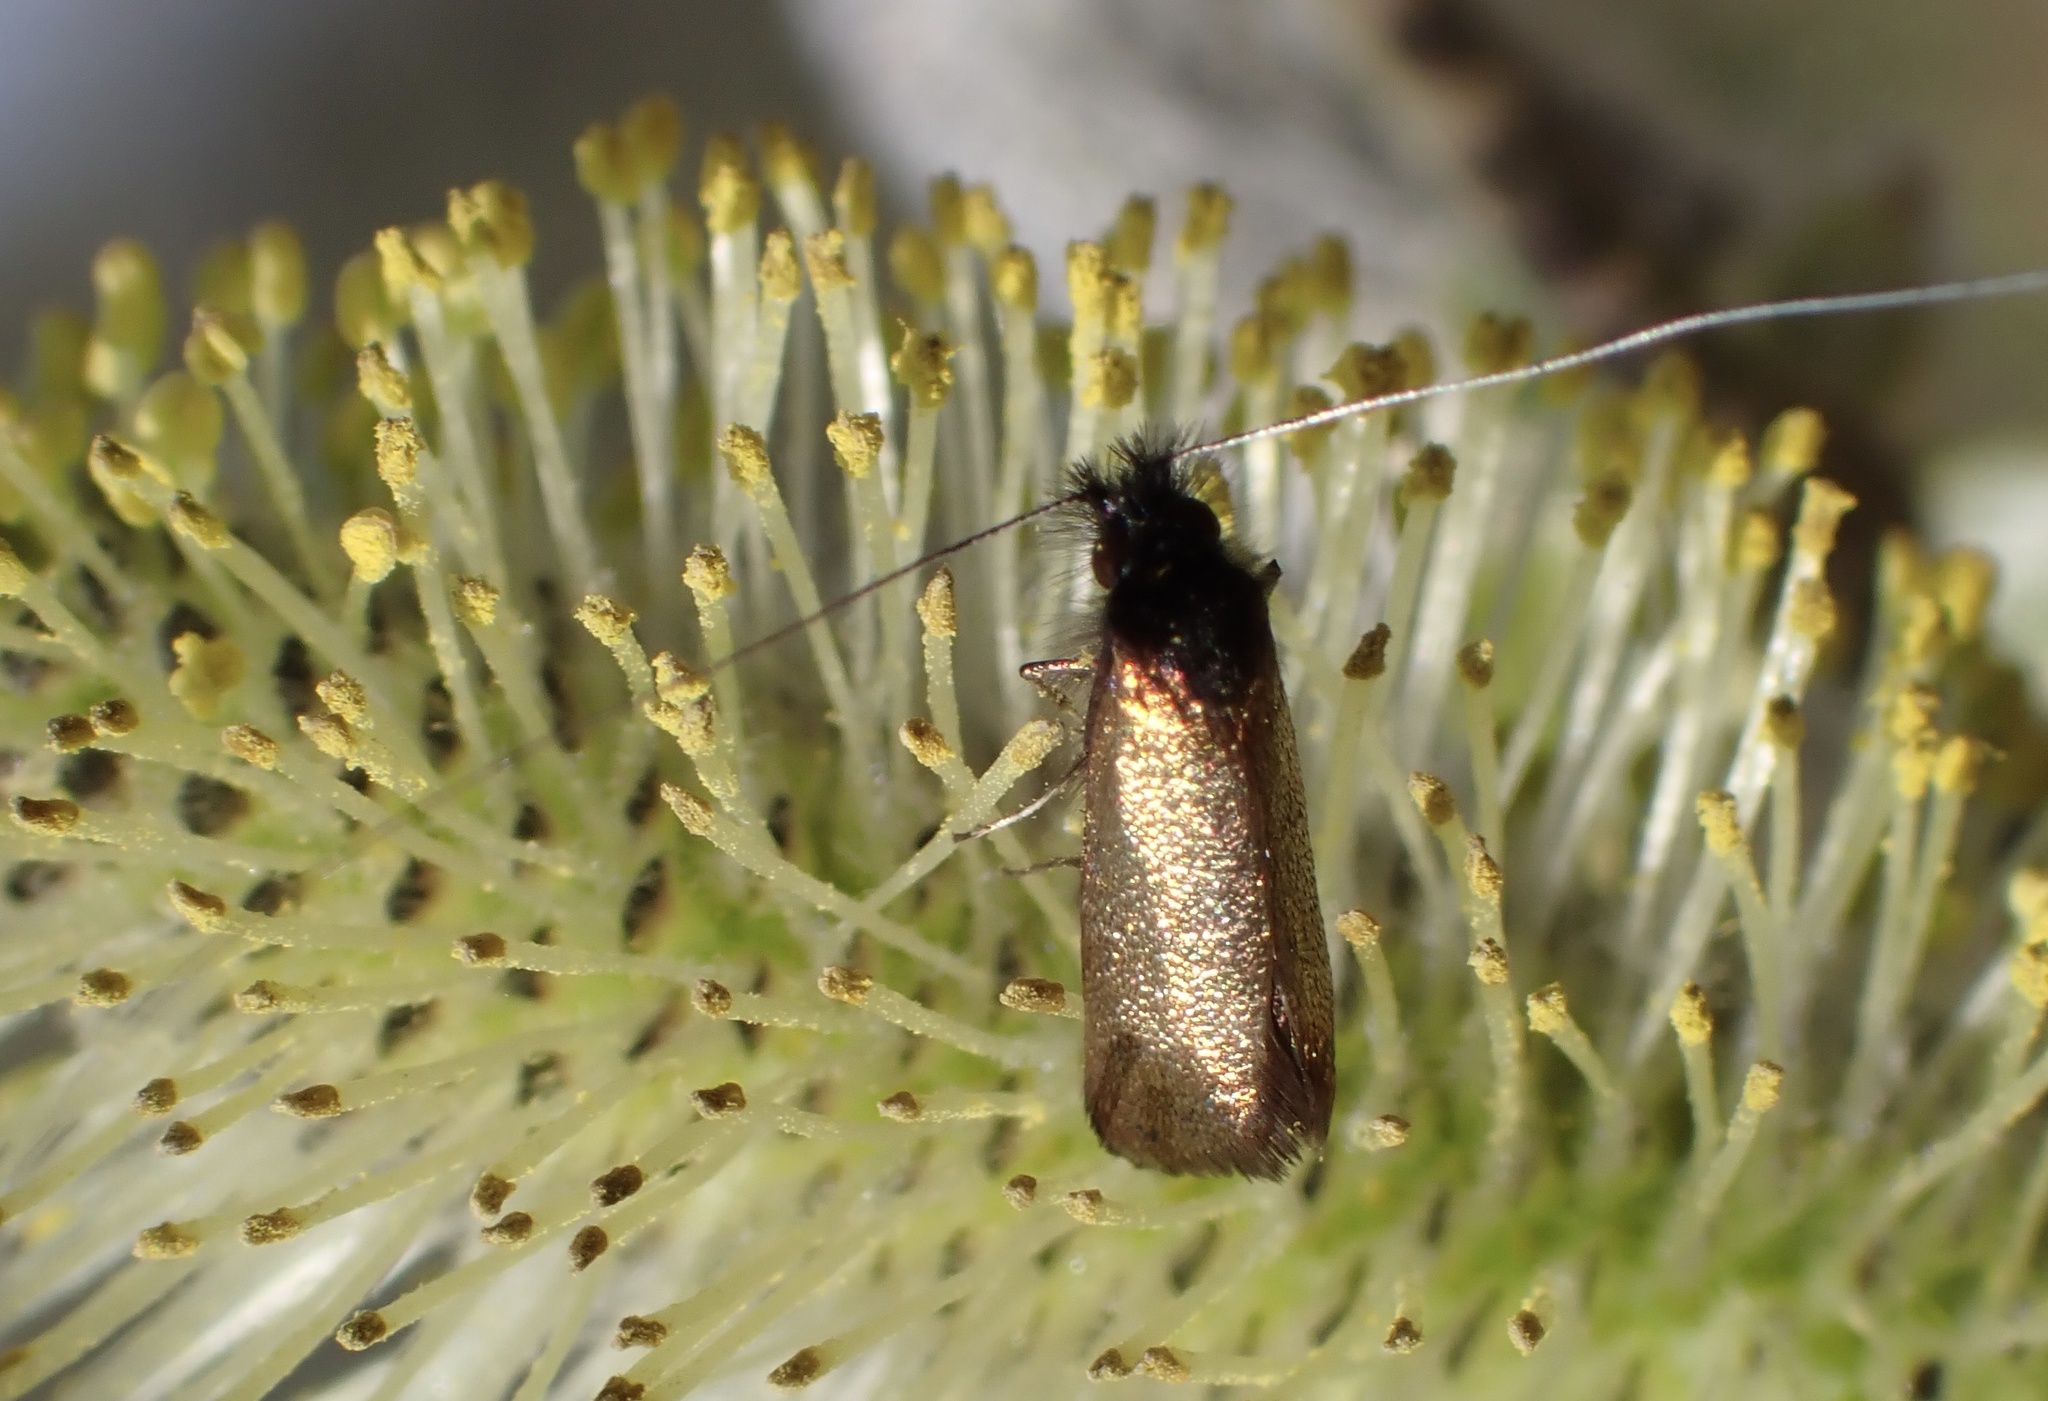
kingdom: Animalia
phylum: Arthropoda
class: Insecta
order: Lepidoptera
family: Adelidae
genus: Adela
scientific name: Adela cuprella
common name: Early long-horn
